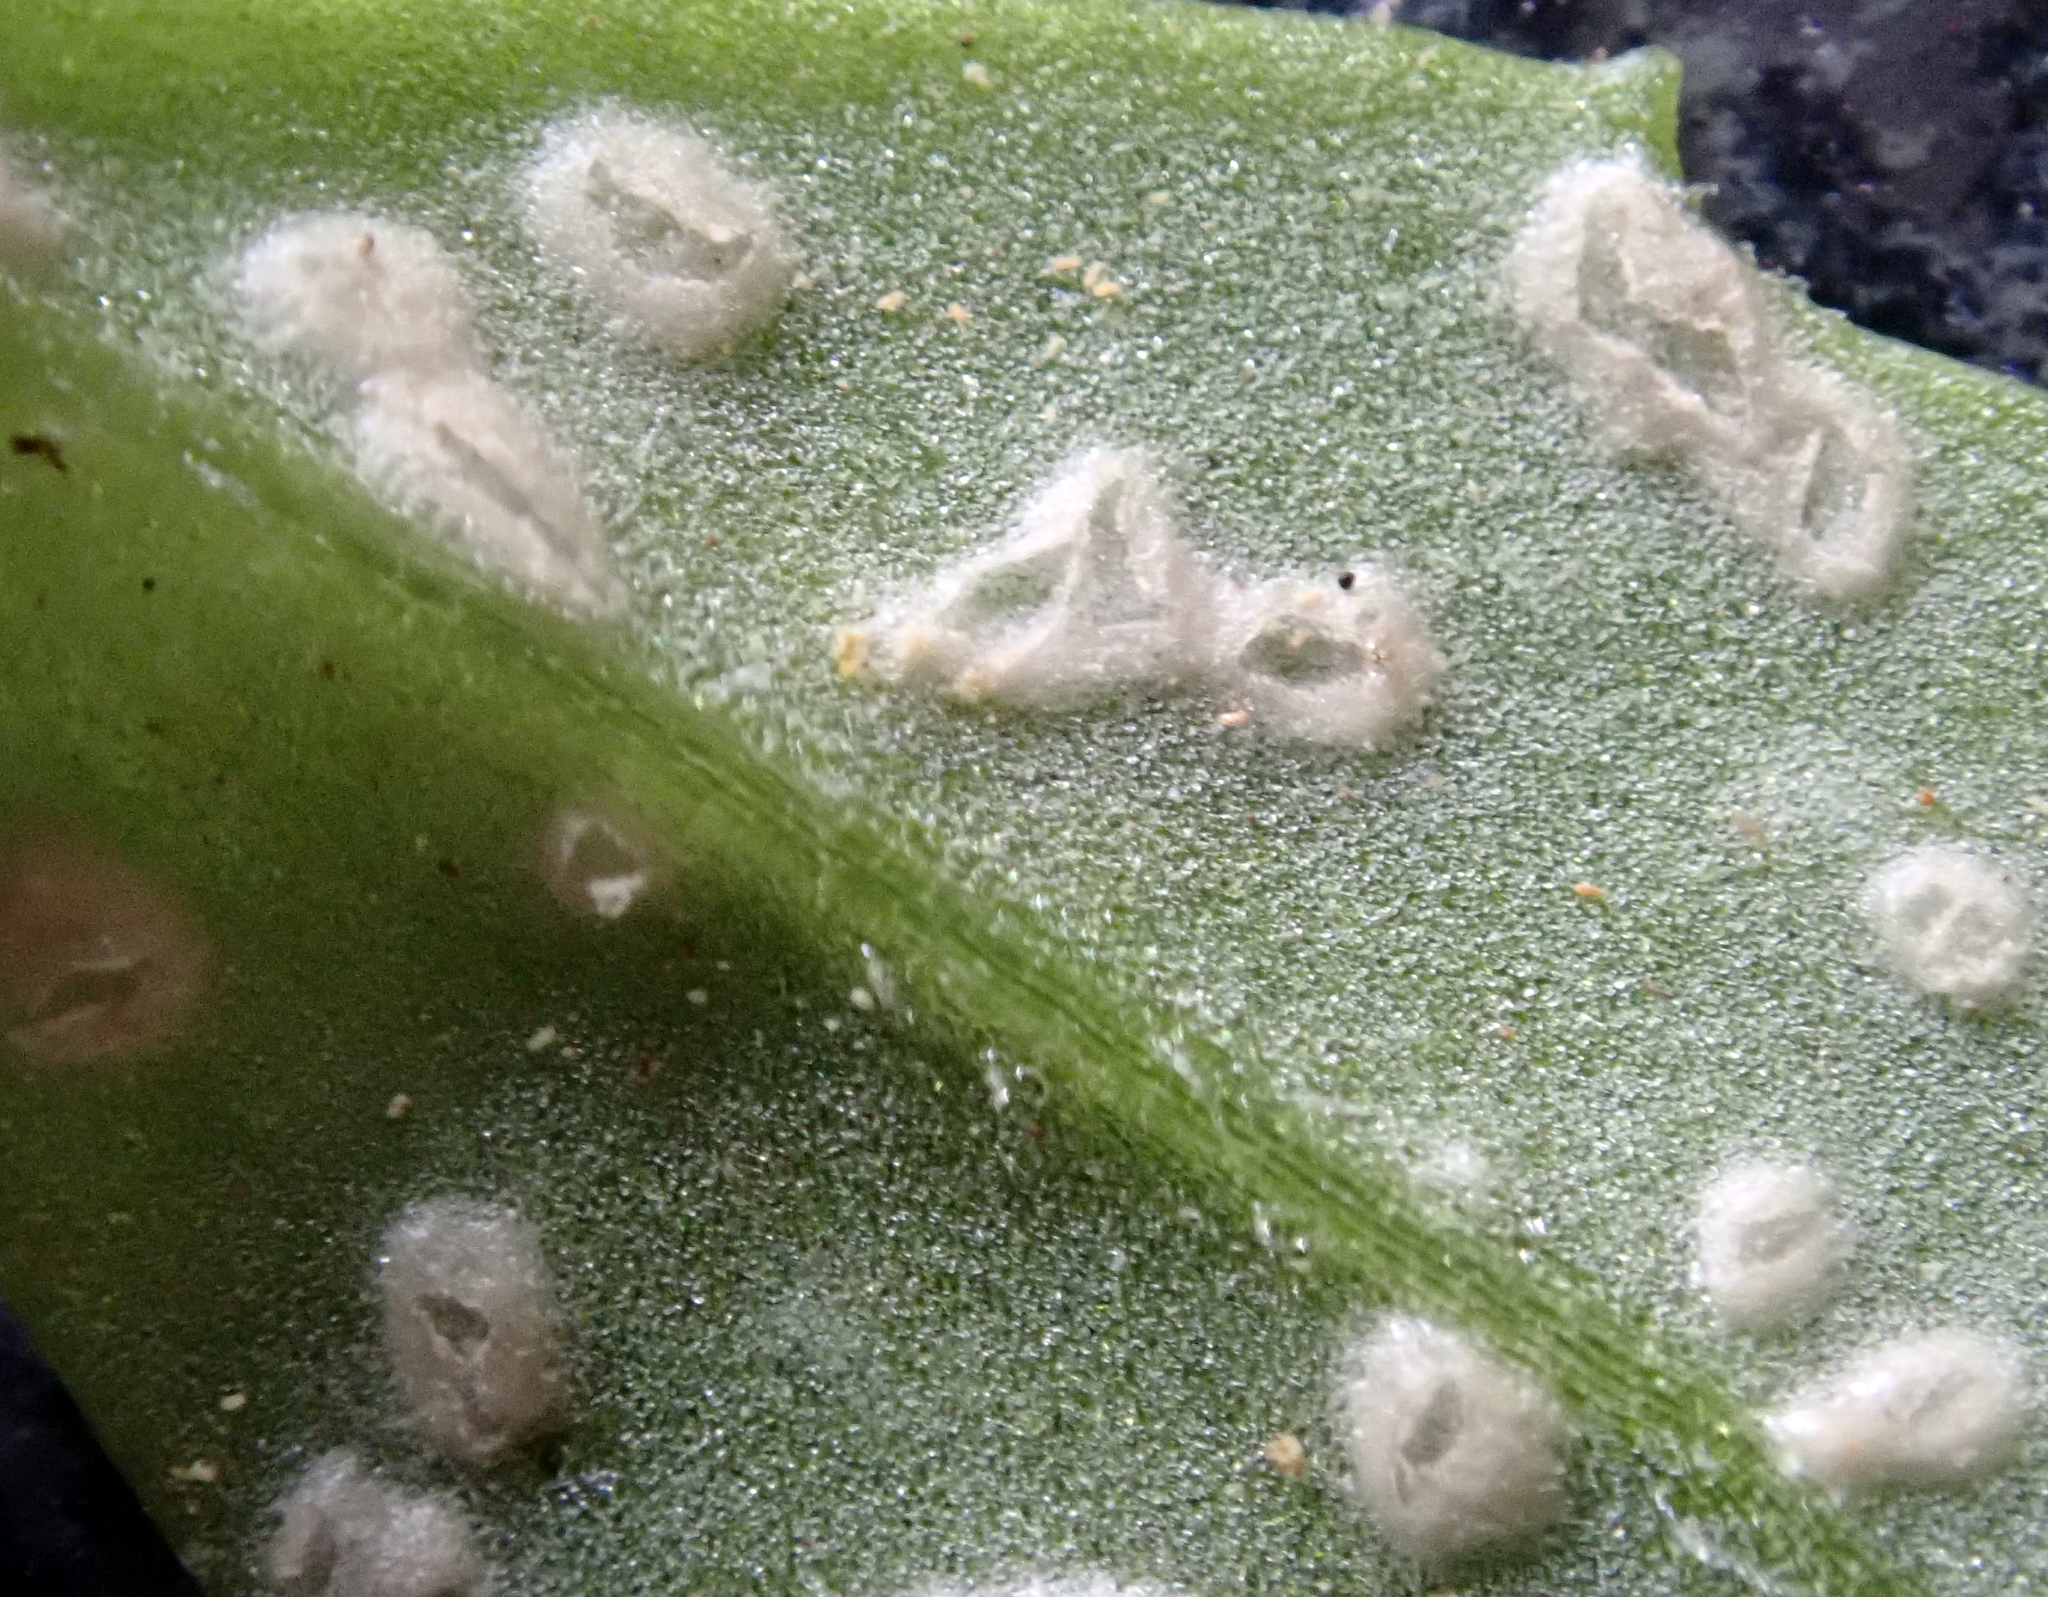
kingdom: Chromista
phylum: Oomycota
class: Peronosporea
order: Albuginales
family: Albuginaceae
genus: Pustula
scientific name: Pustula
